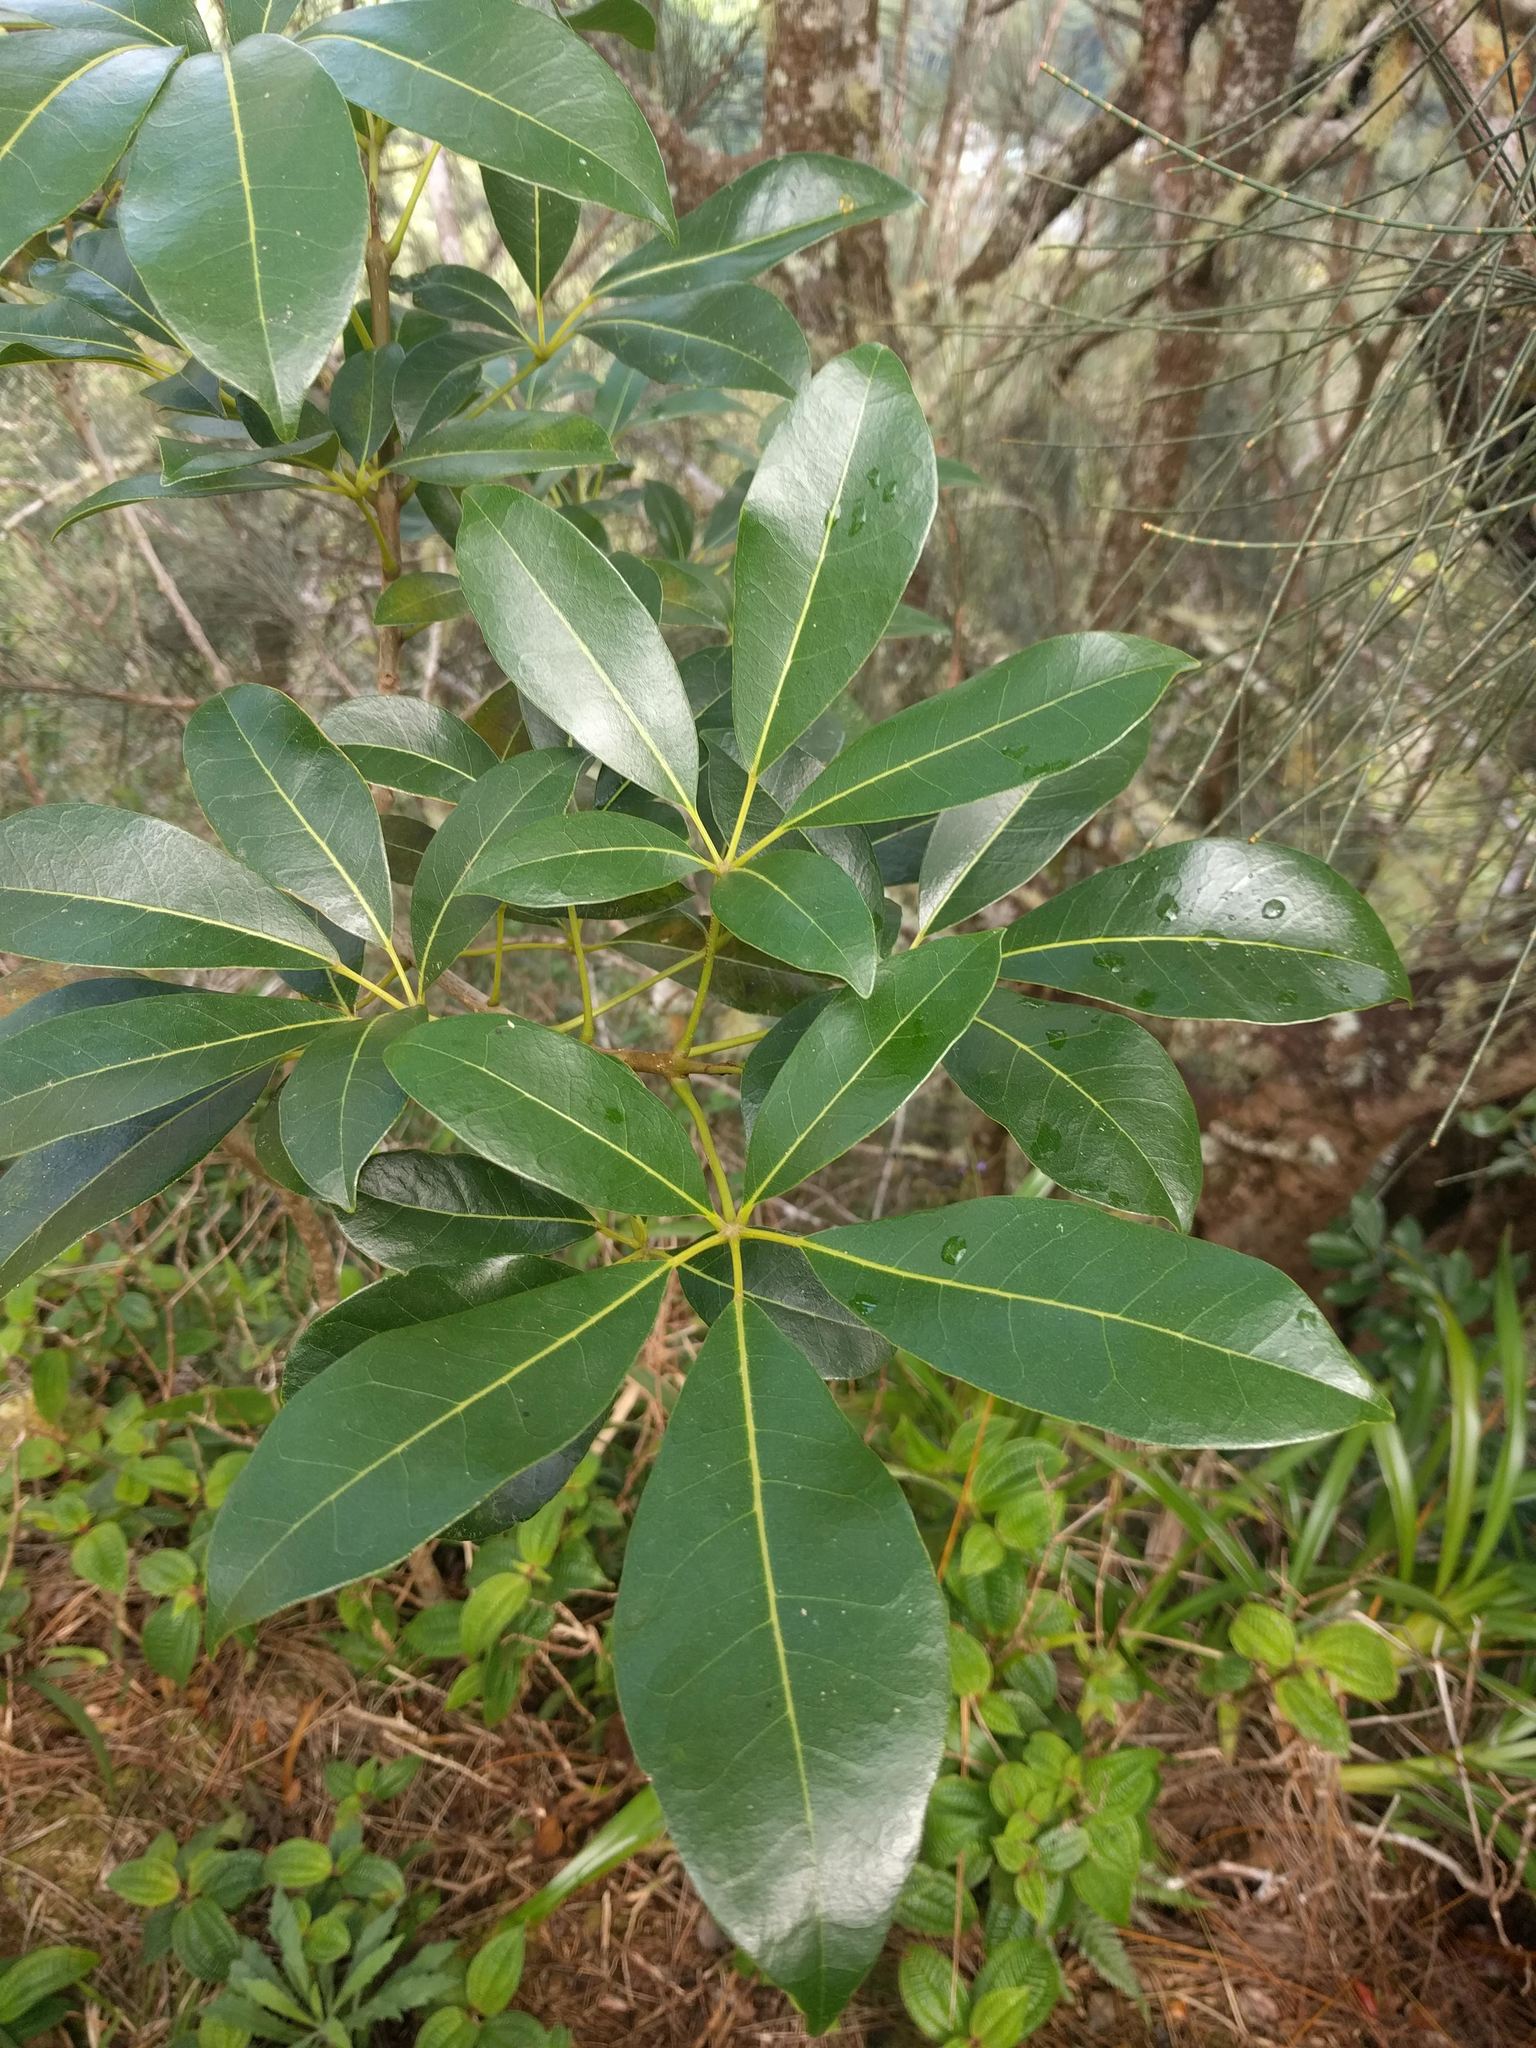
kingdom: Plantae
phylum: Tracheophyta
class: Magnoliopsida
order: Lamiales
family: Bignoniaceae
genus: Tabebuia
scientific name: Tabebuia heterophylla
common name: White cedar
